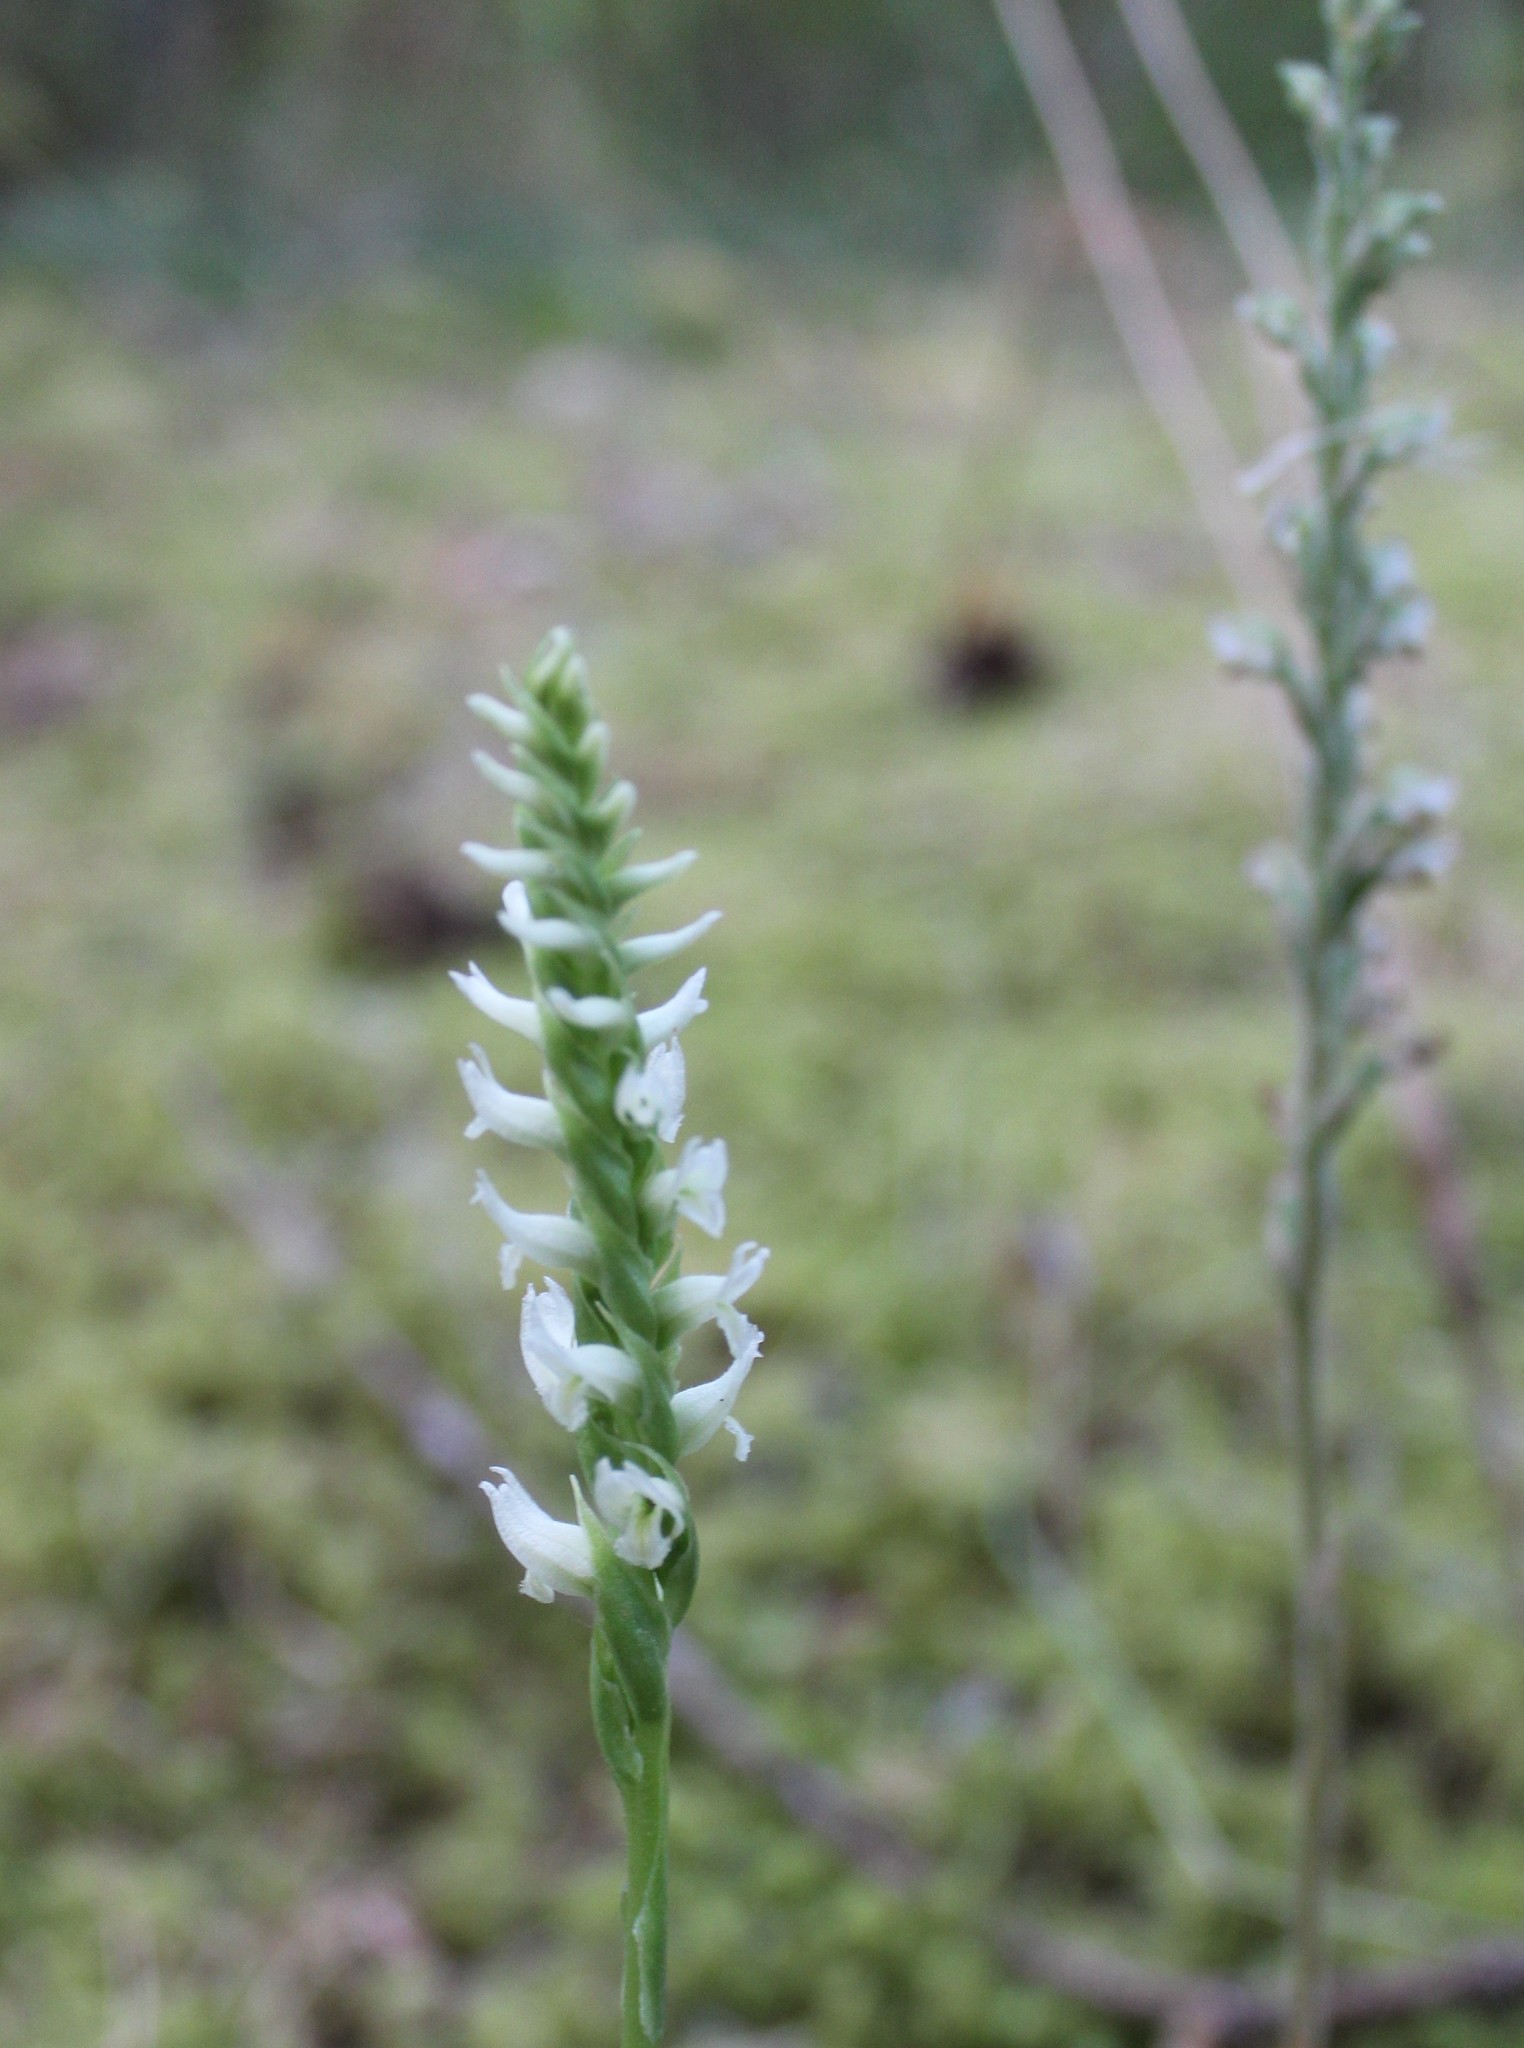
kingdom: Plantae
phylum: Tracheophyta
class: Liliopsida
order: Asparagales
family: Orchidaceae
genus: Spiranthes
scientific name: Spiranthes romanzoffiana
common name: Irish lady's-tresses
